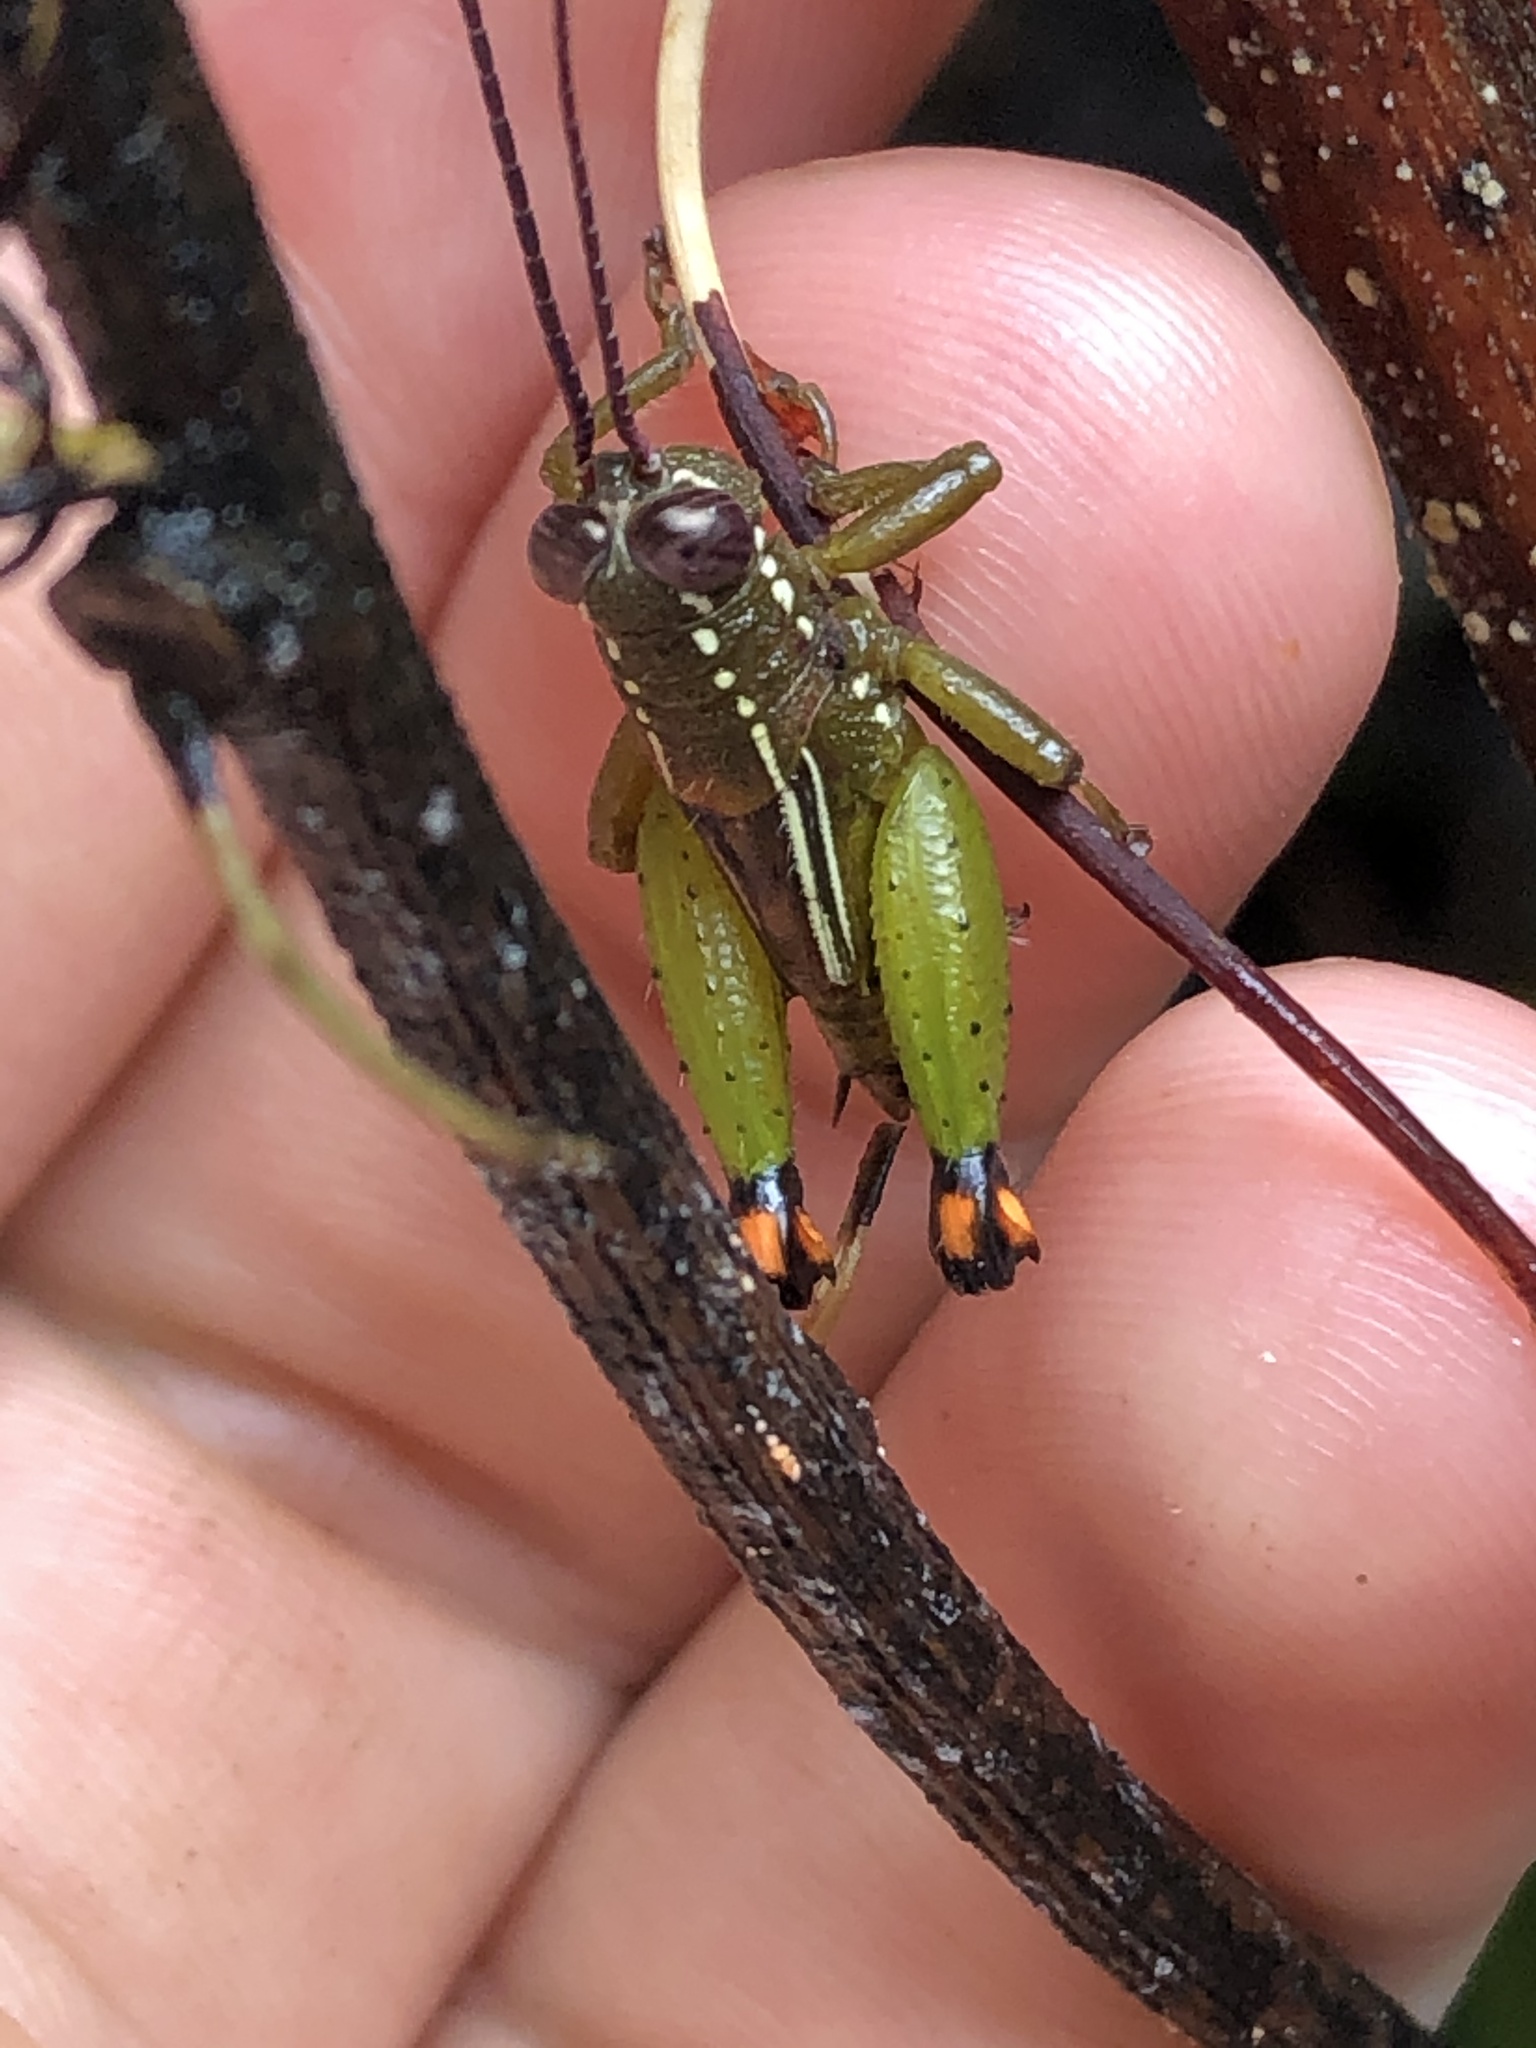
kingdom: Animalia
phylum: Arthropoda
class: Insecta
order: Orthoptera
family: Romaleidae
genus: Pseudonautia
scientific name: Pseudonautia manuana
